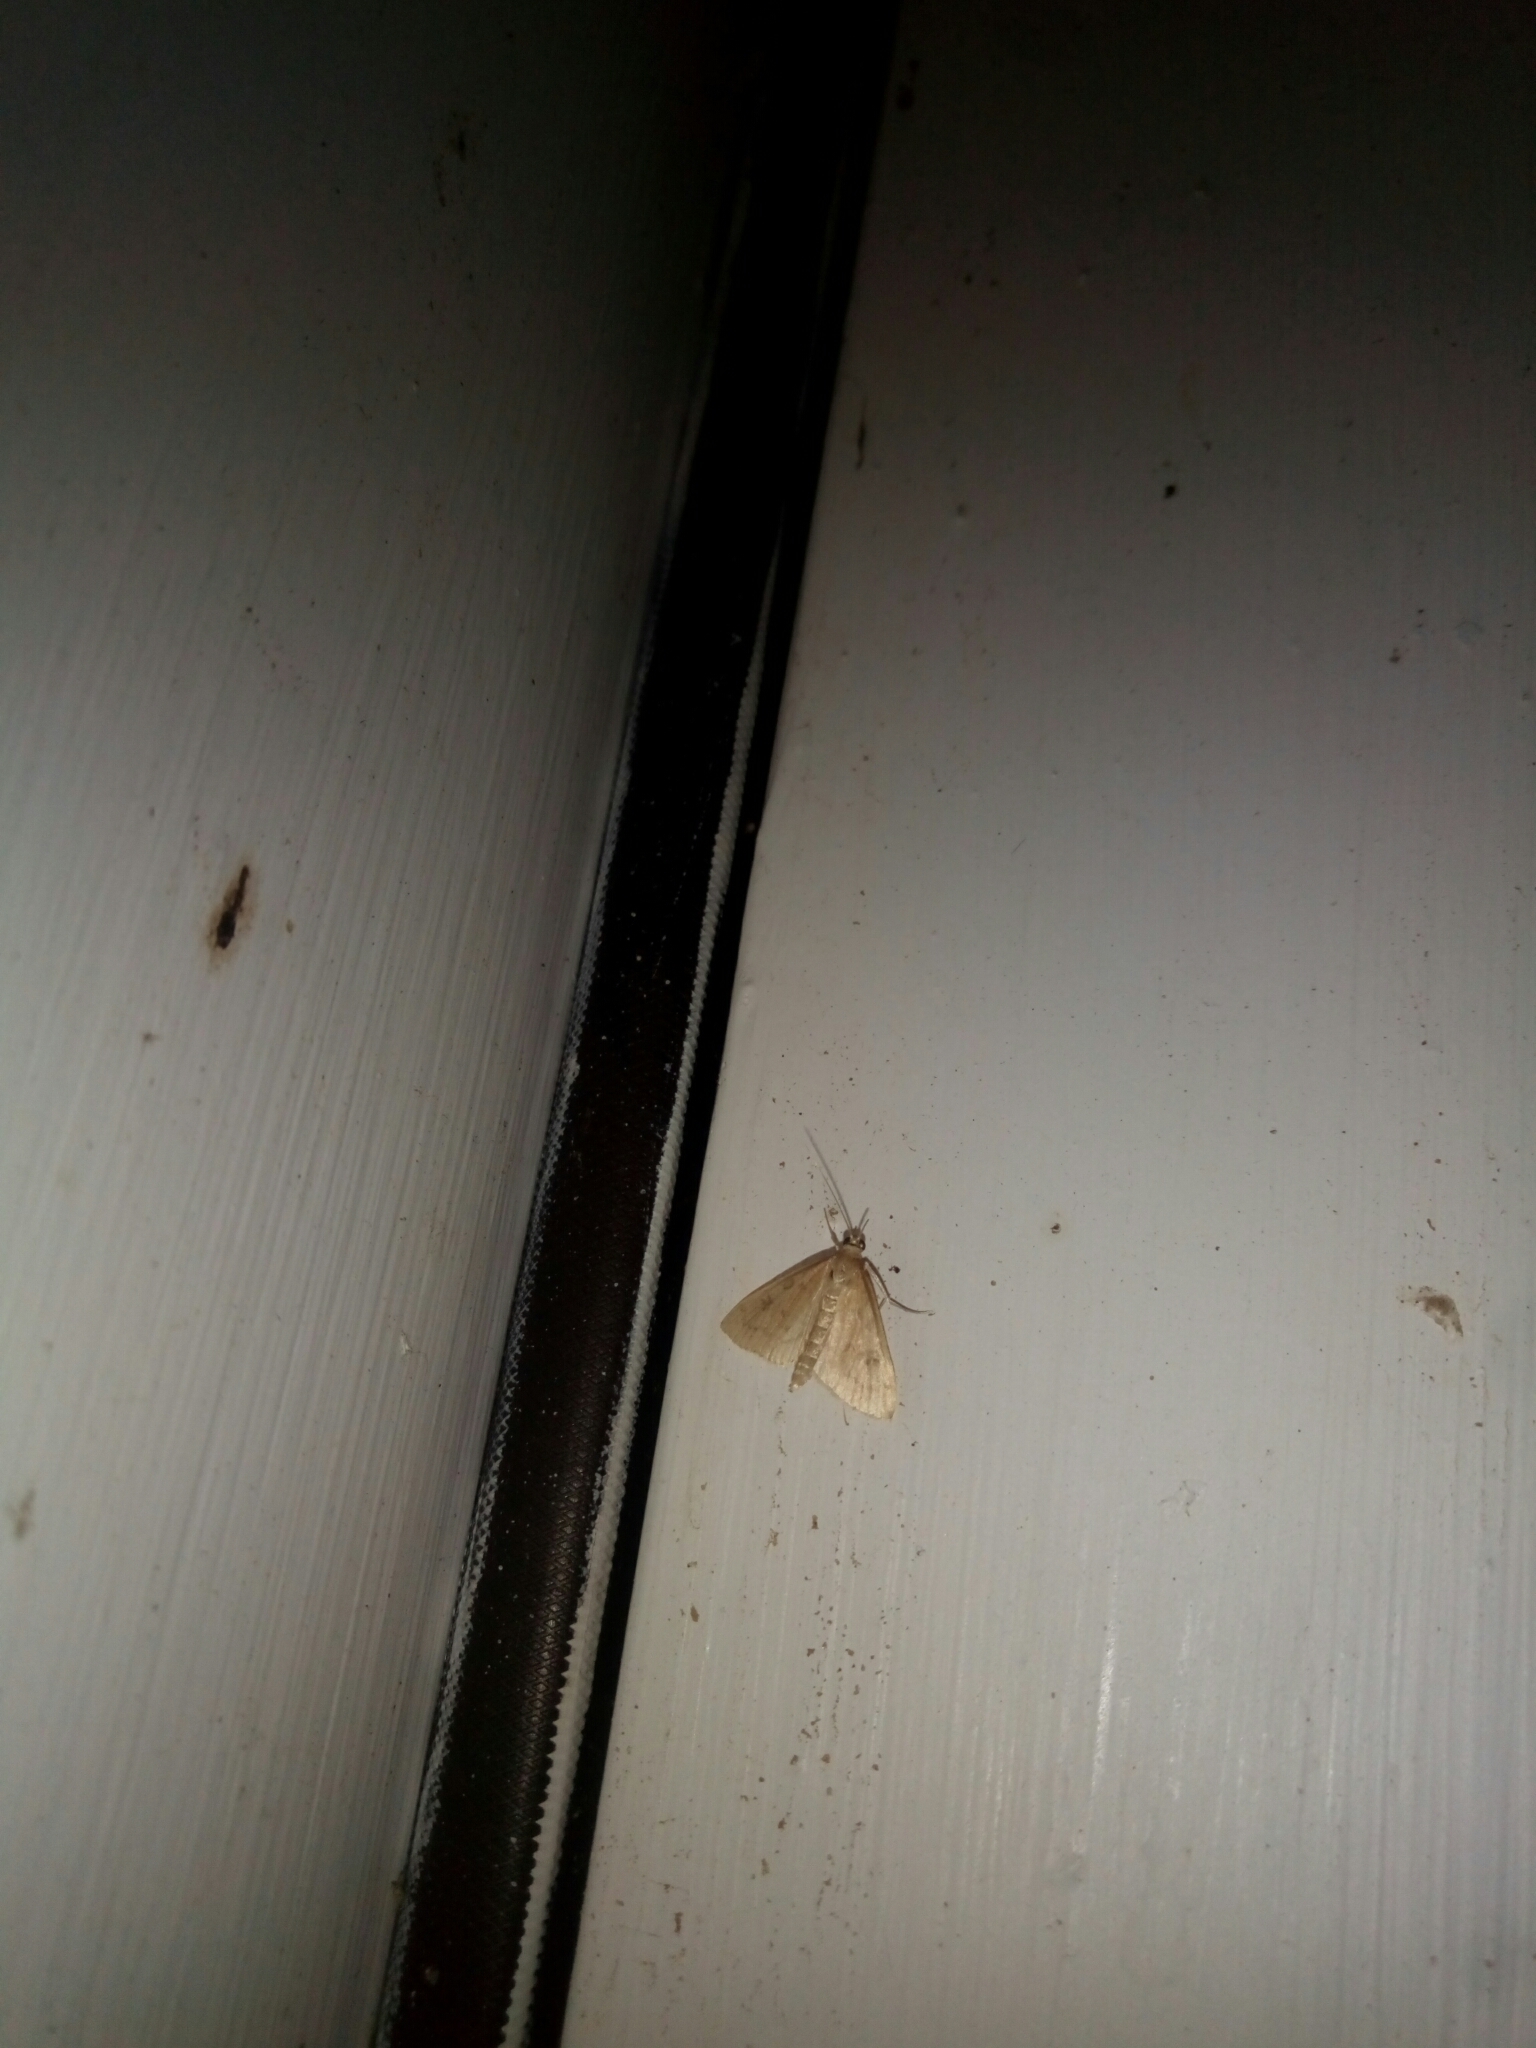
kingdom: Animalia
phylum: Arthropoda
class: Insecta
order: Lepidoptera
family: Crambidae
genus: Udea
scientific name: Udea rubigalis
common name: Celery leaftier moth
